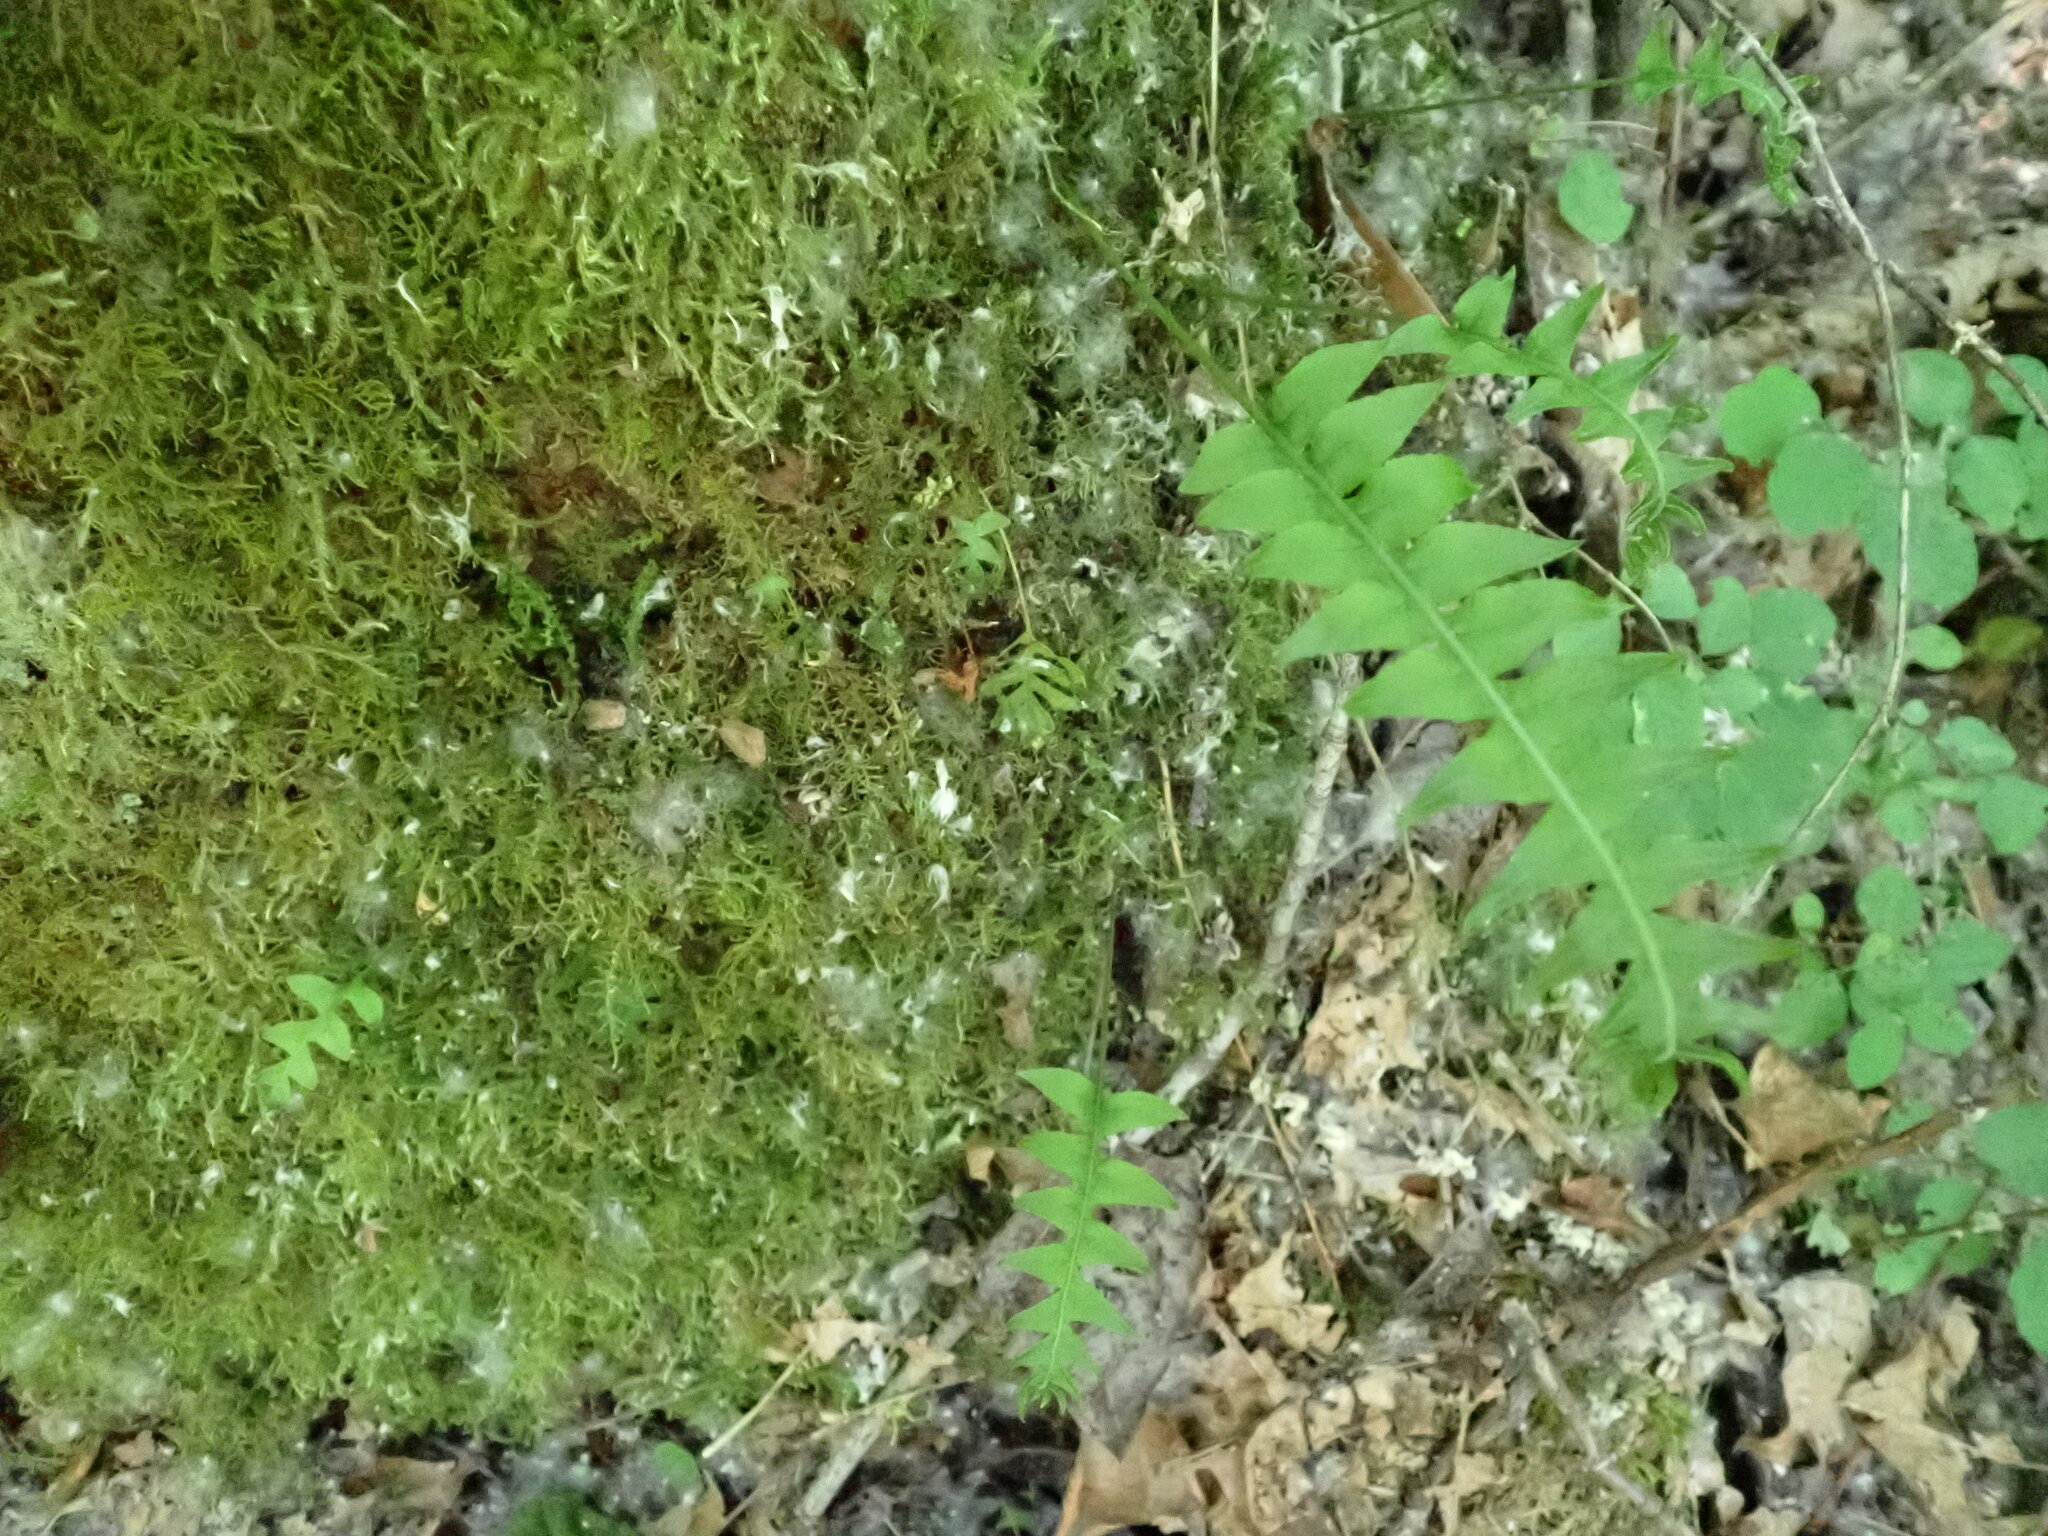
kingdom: Plantae
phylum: Tracheophyta
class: Polypodiopsida
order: Polypodiales
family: Polypodiaceae
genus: Polypodium
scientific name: Polypodium glycyrrhiza
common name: Licorice fern
